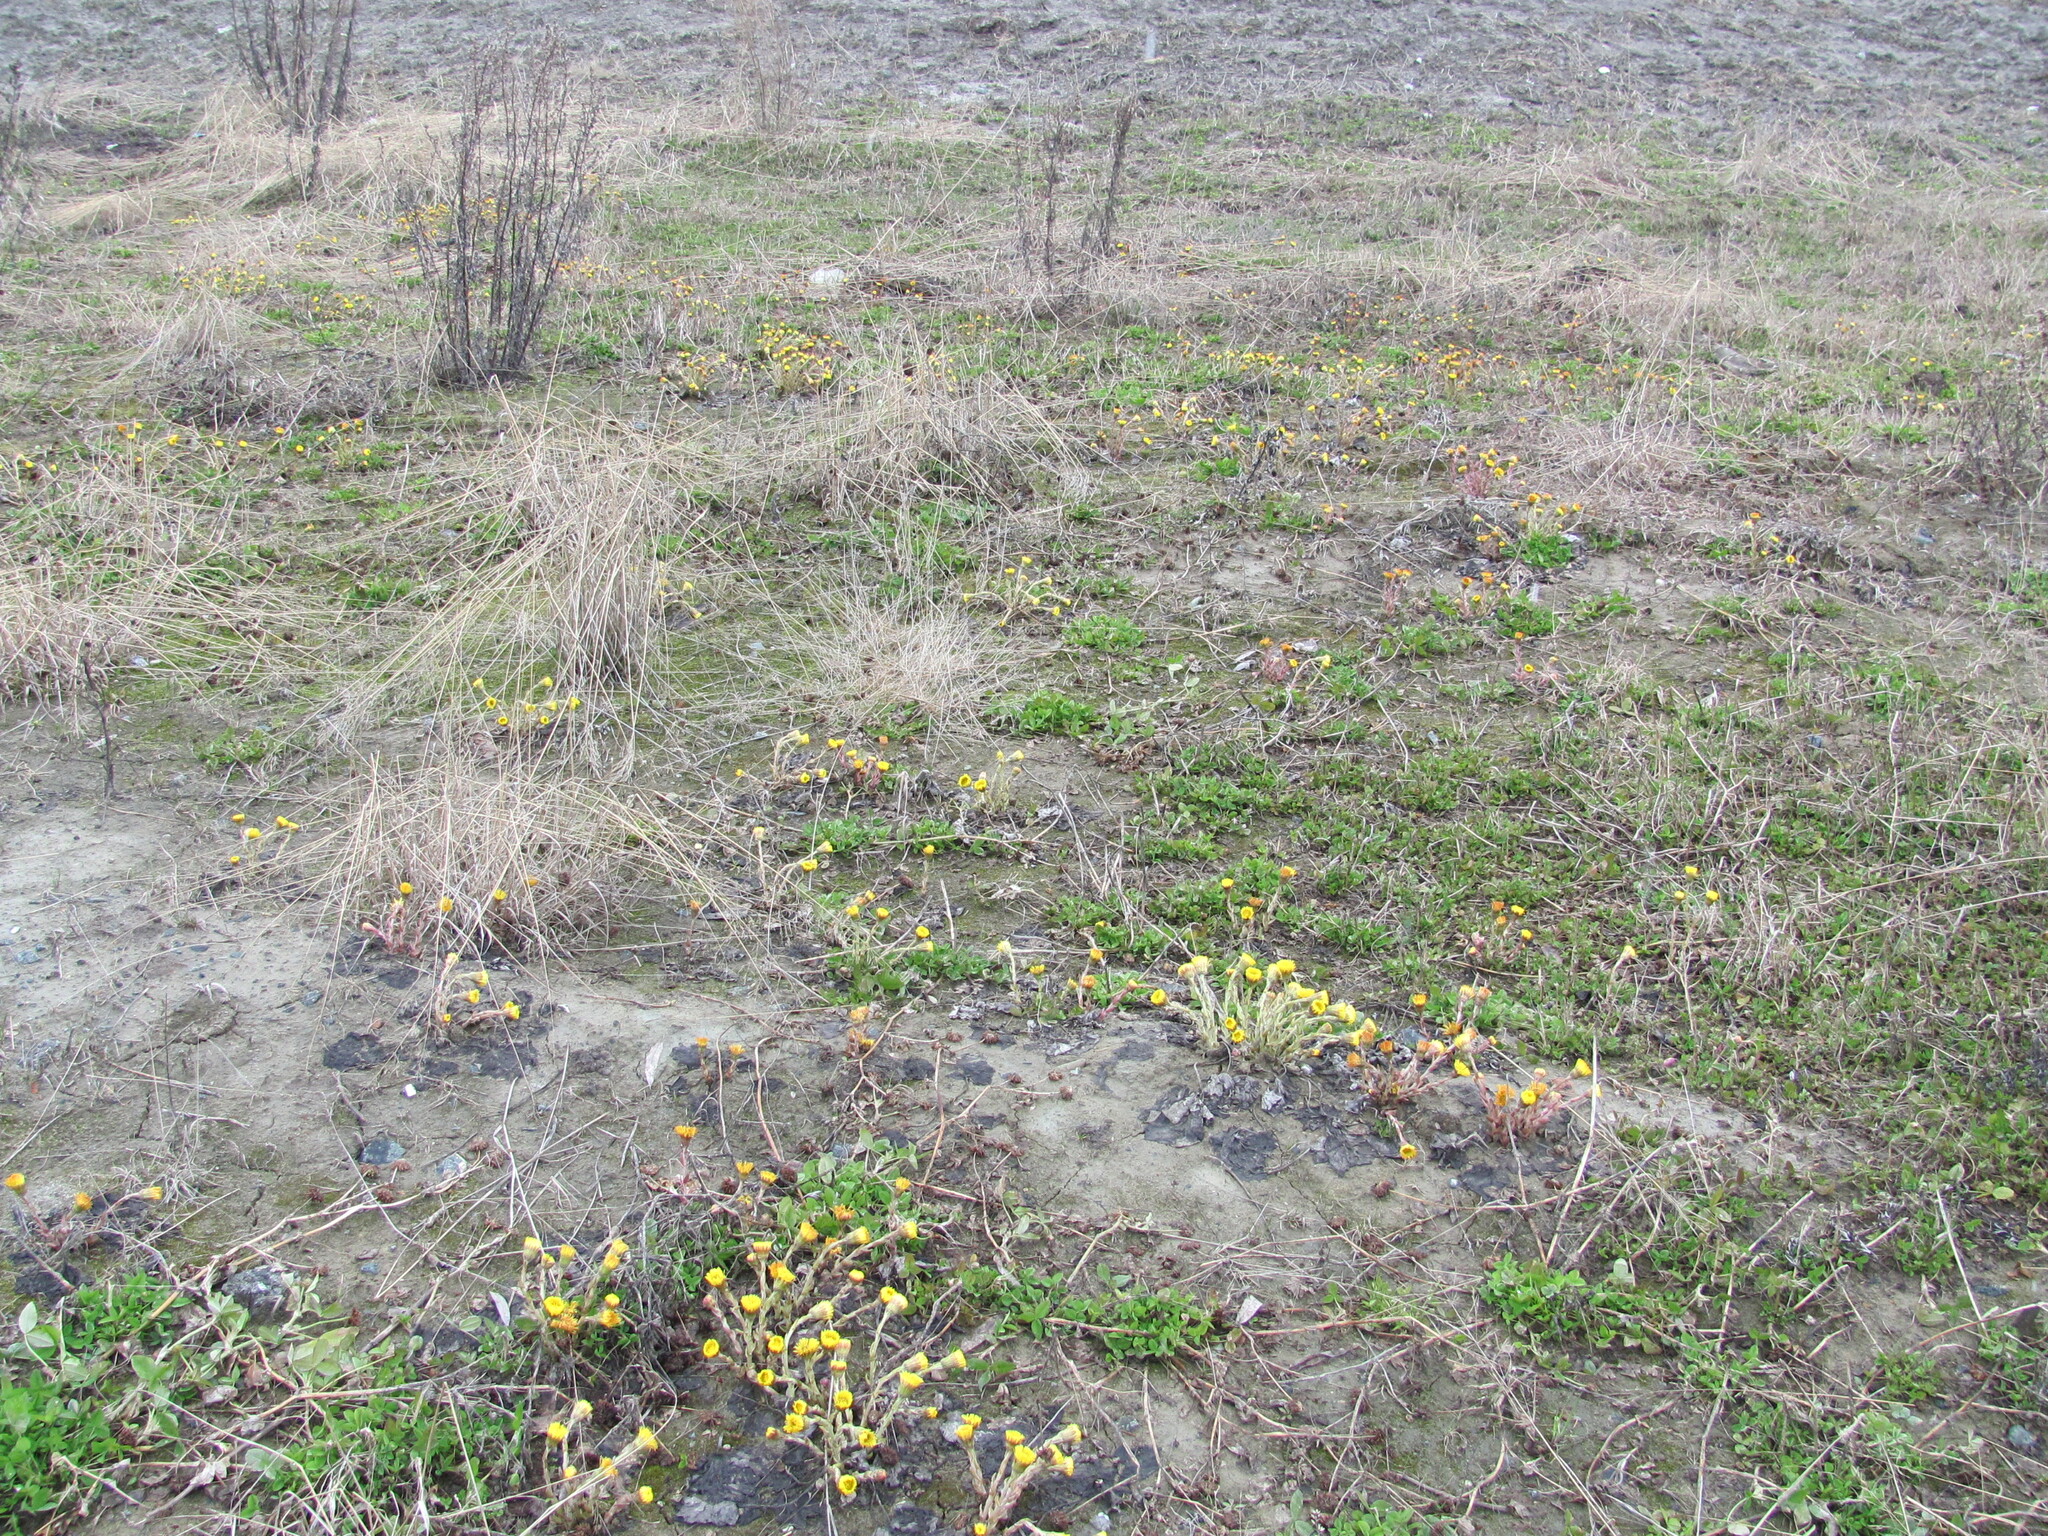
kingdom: Plantae
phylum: Tracheophyta
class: Magnoliopsida
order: Asterales
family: Asteraceae
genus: Tussilago
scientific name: Tussilago farfara
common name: Coltsfoot
